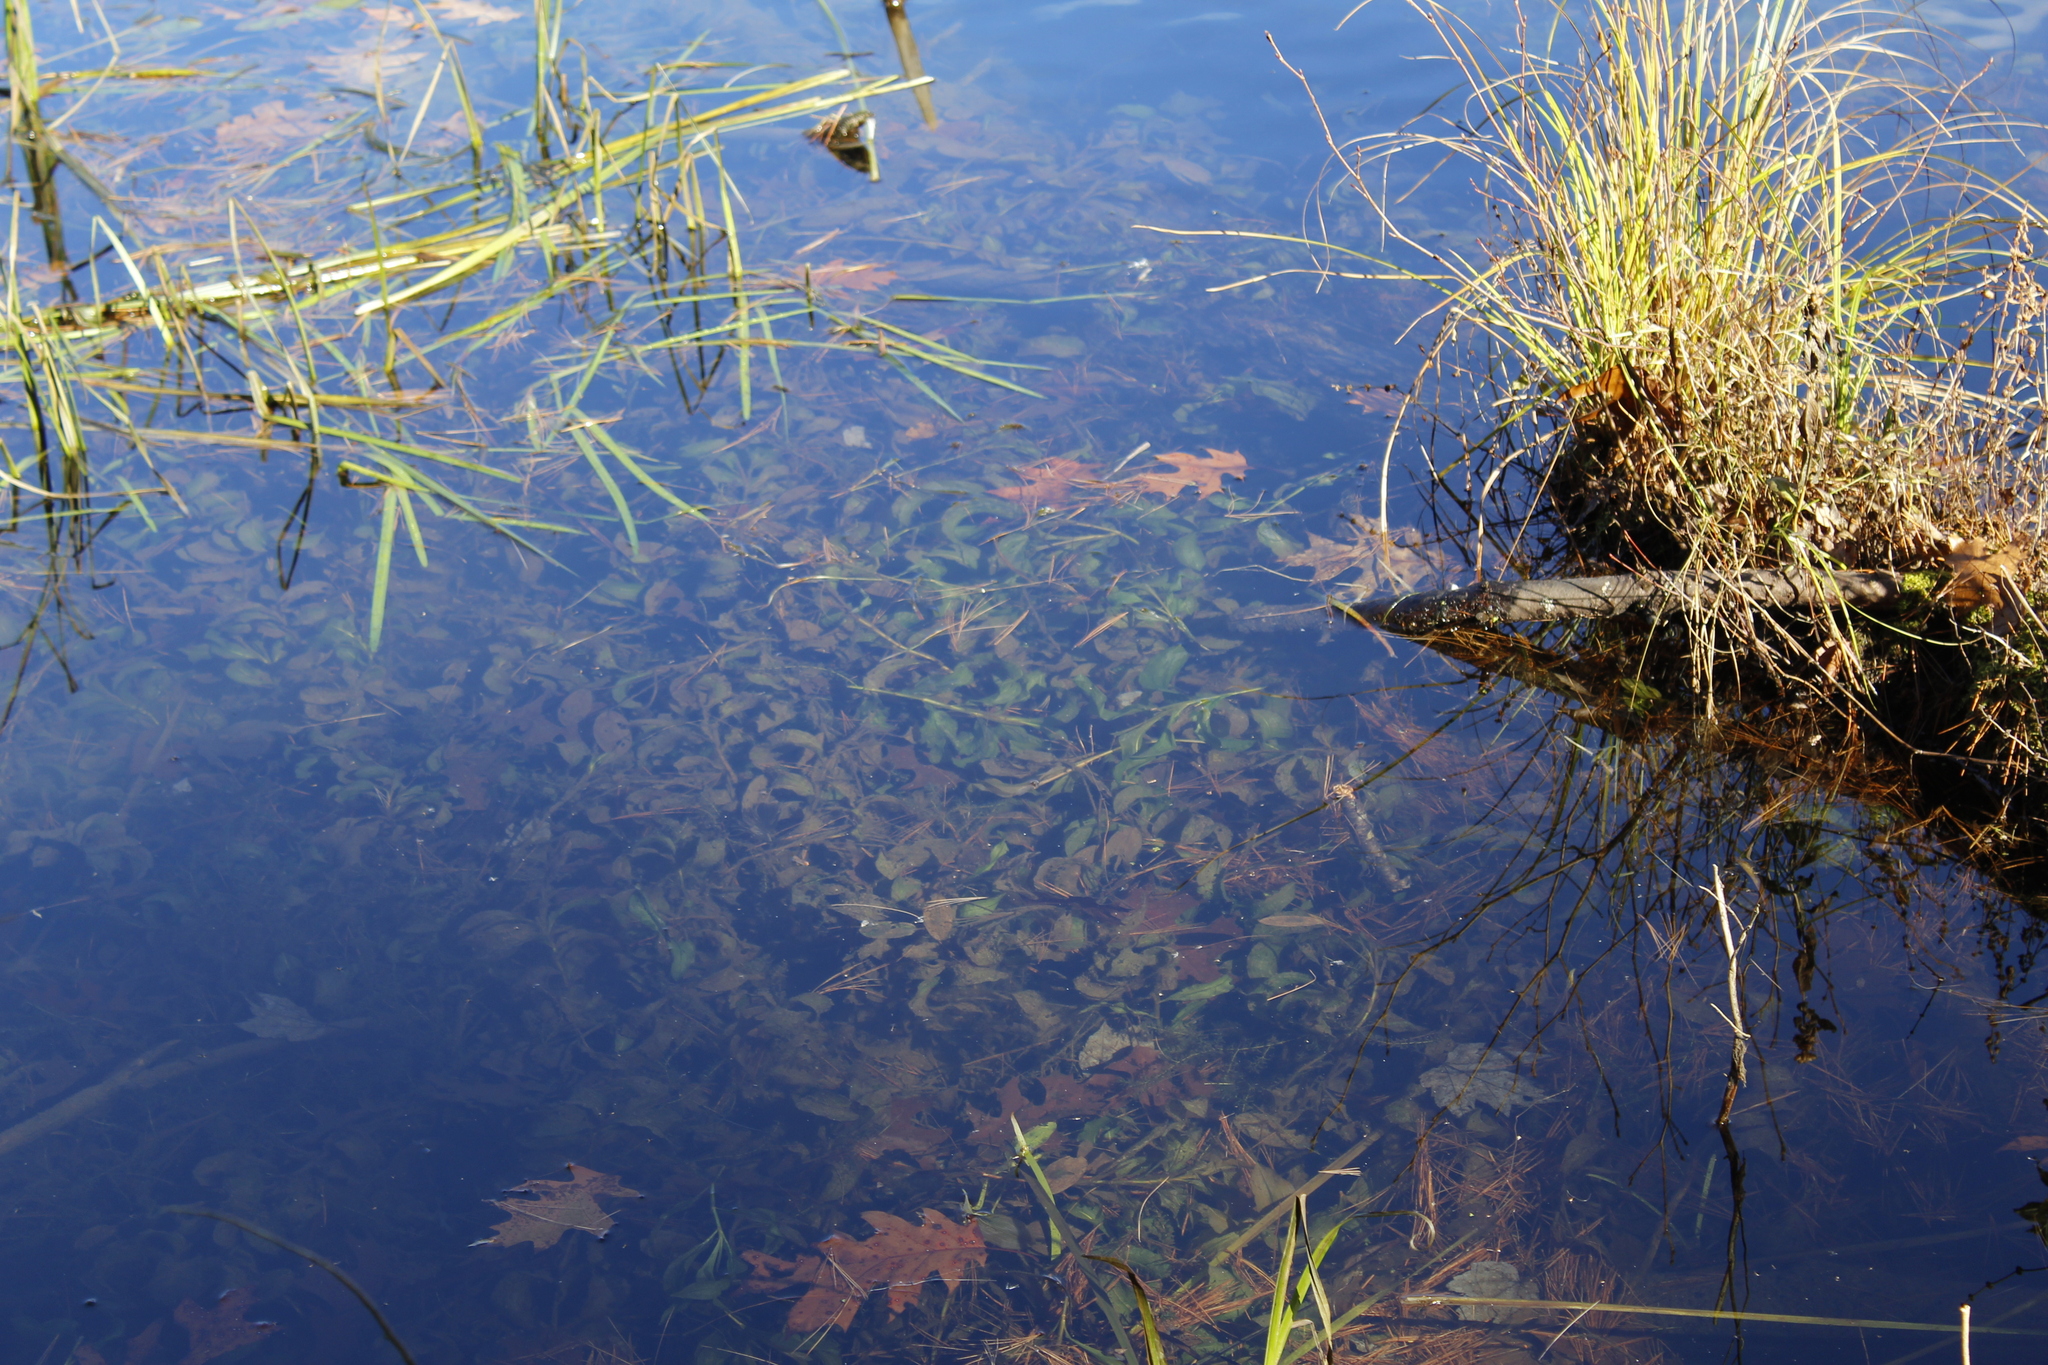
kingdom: Plantae
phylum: Tracheophyta
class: Liliopsida
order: Alismatales
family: Potamogetonaceae
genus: Potamogeton
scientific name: Potamogeton amplifolius
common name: Broad-leaved pondweed
